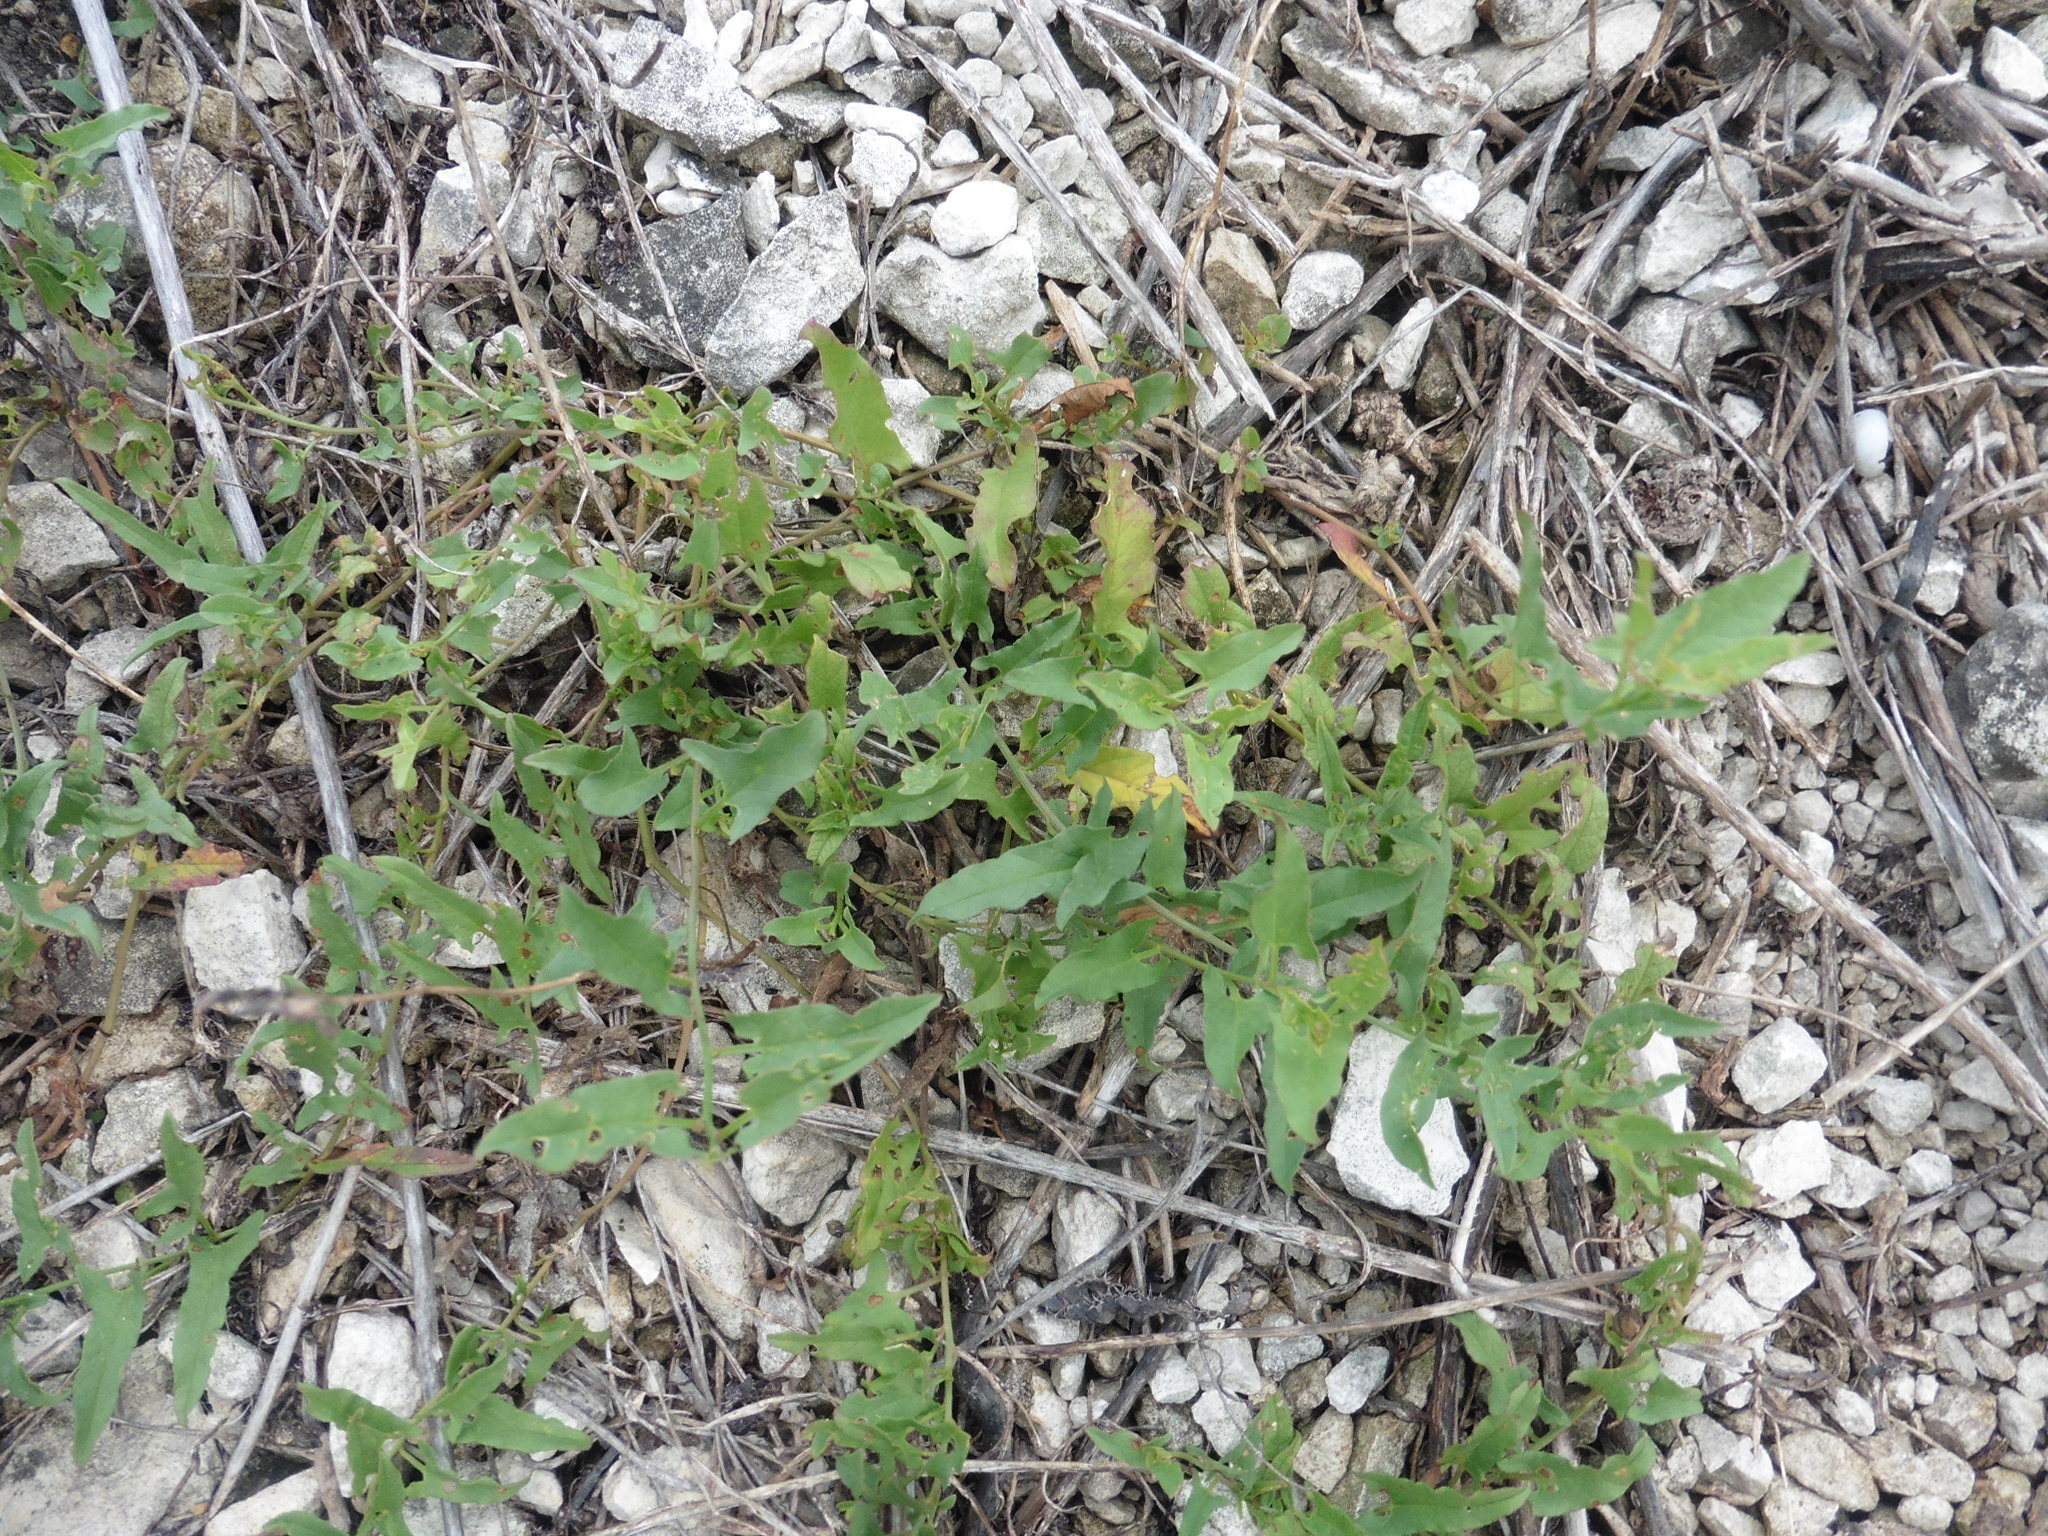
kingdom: Plantae
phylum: Tracheophyta
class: Magnoliopsida
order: Solanales
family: Convolvulaceae
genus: Convolvulus
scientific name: Convolvulus arvensis
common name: Field bindweed
